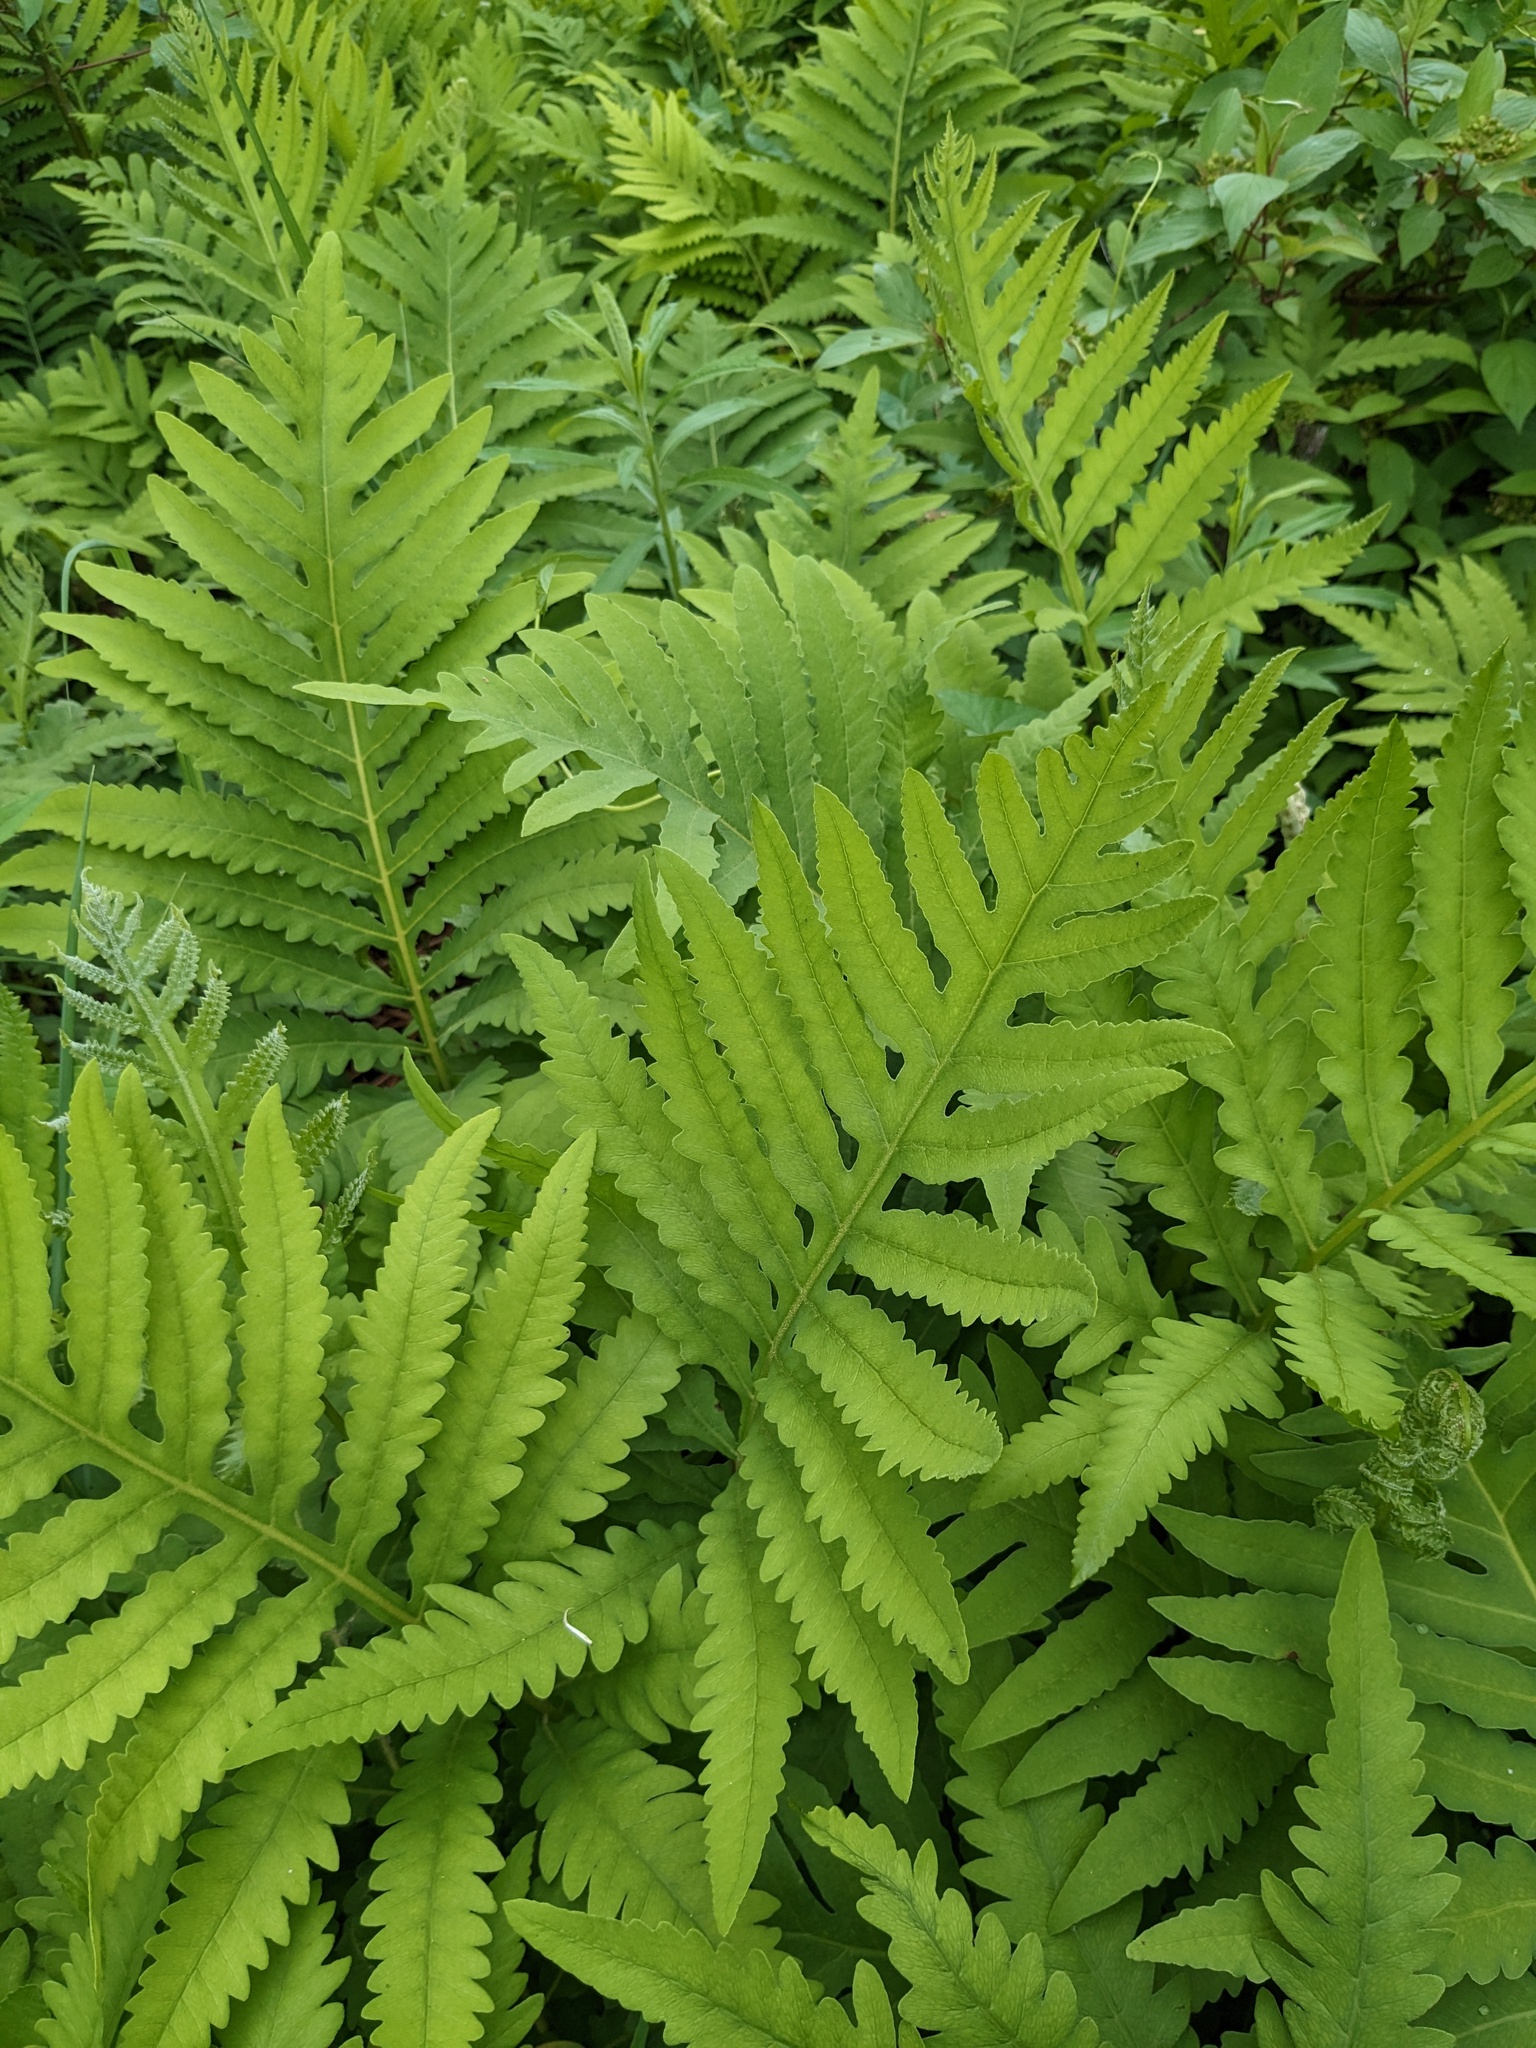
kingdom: Plantae
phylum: Tracheophyta
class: Polypodiopsida
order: Polypodiales
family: Onocleaceae
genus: Onoclea
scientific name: Onoclea sensibilis
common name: Sensitive fern
